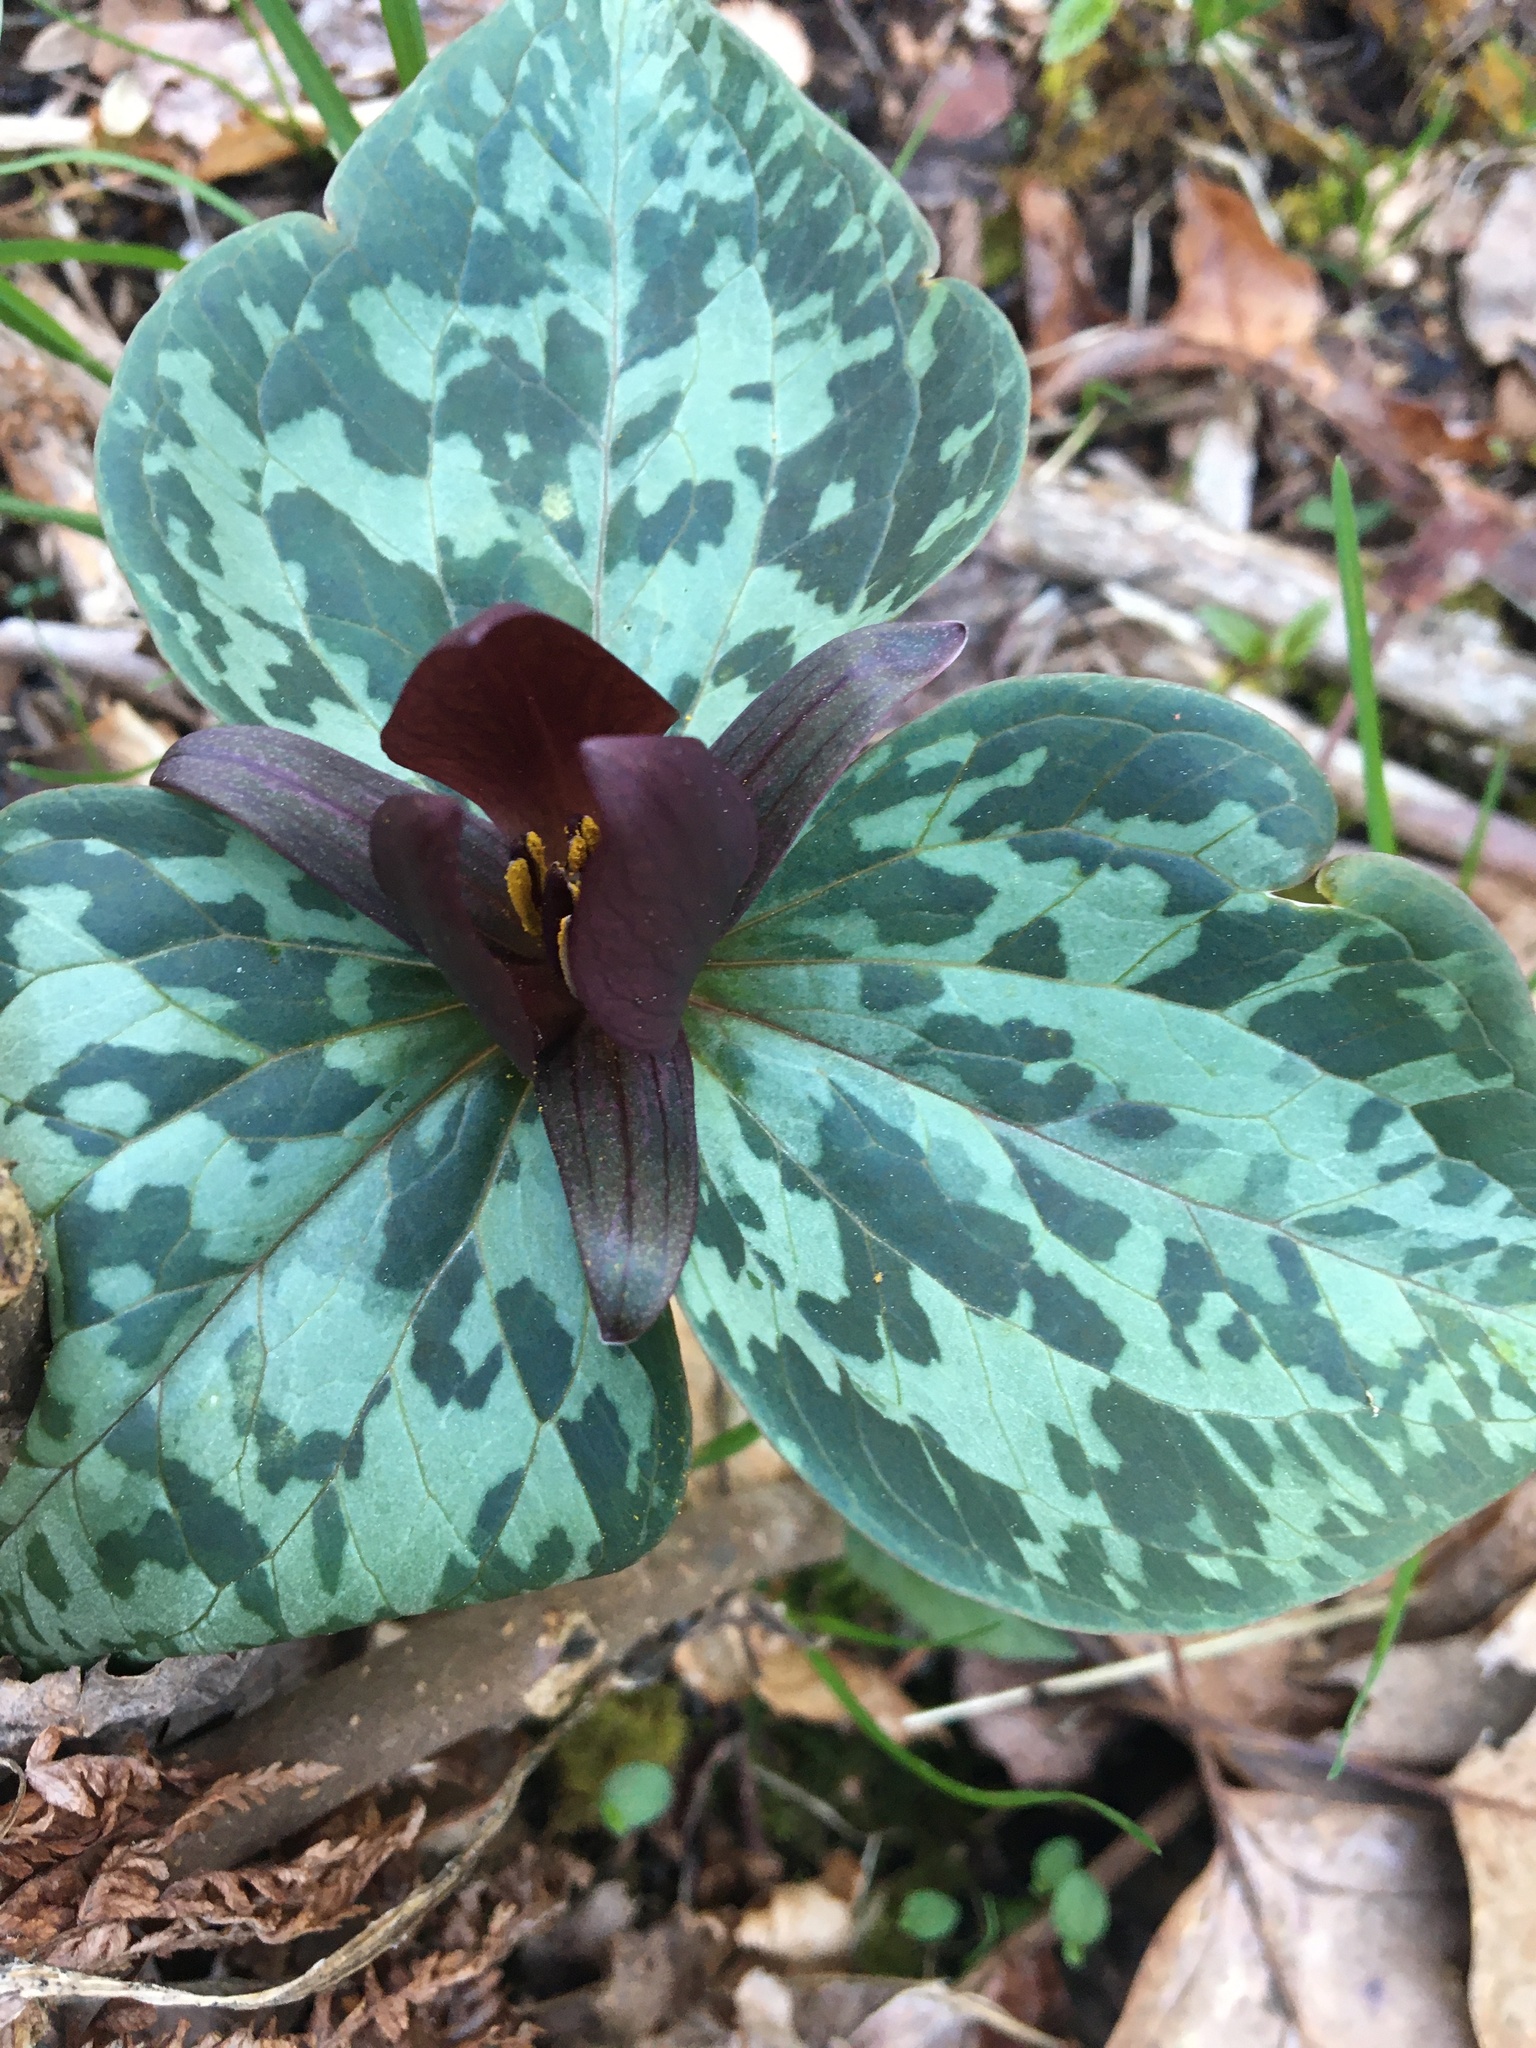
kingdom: Plantae
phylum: Tracheophyta
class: Liliopsida
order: Liliales
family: Melanthiaceae
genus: Trillium
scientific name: Trillium cuneatum
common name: Cuneate trillium
